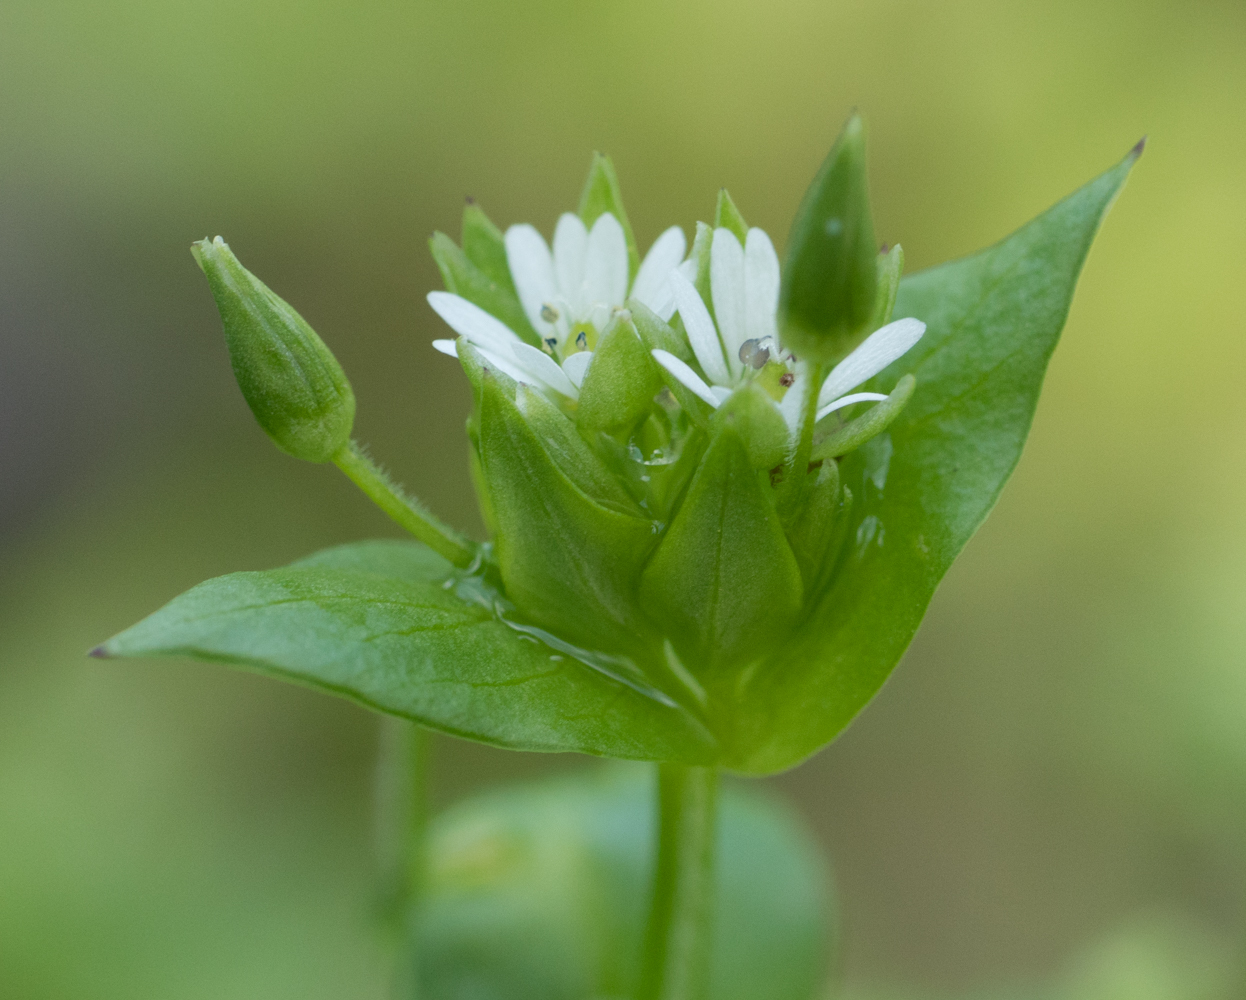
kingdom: Plantae
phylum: Tracheophyta
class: Magnoliopsida
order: Caryophyllales
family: Caryophyllaceae
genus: Stellaria
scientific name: Stellaria media
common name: Common chickweed
